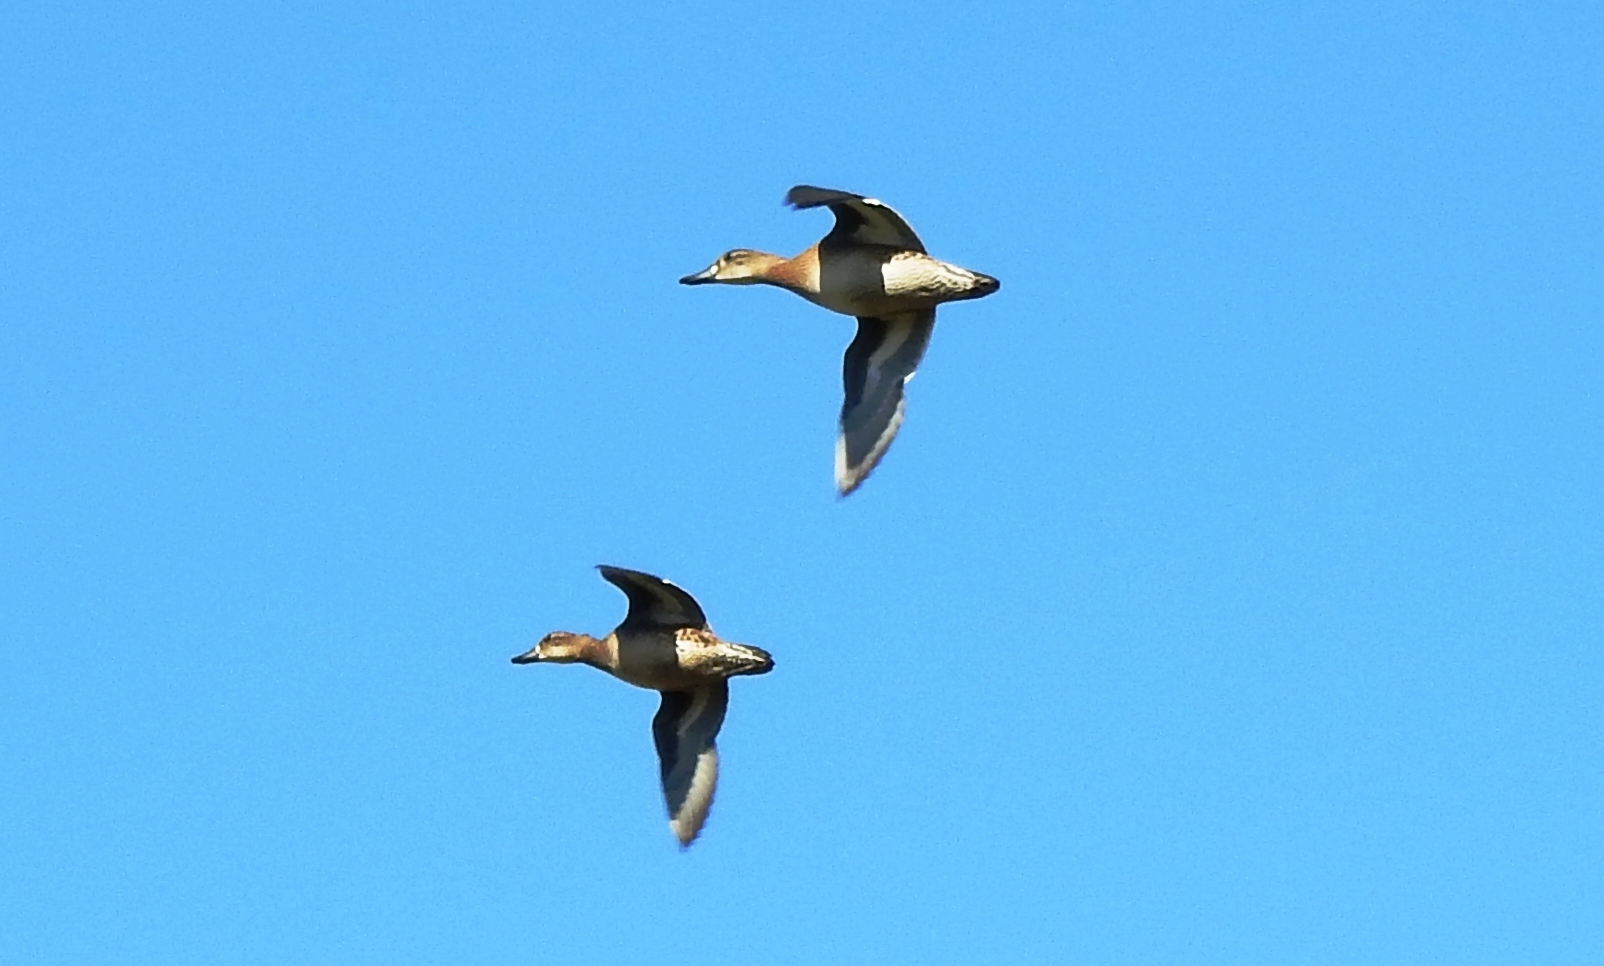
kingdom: Animalia
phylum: Chordata
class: Aves
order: Anseriformes
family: Anatidae
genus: Sibirionetta
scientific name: Sibirionetta formosa
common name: Baikal teal
